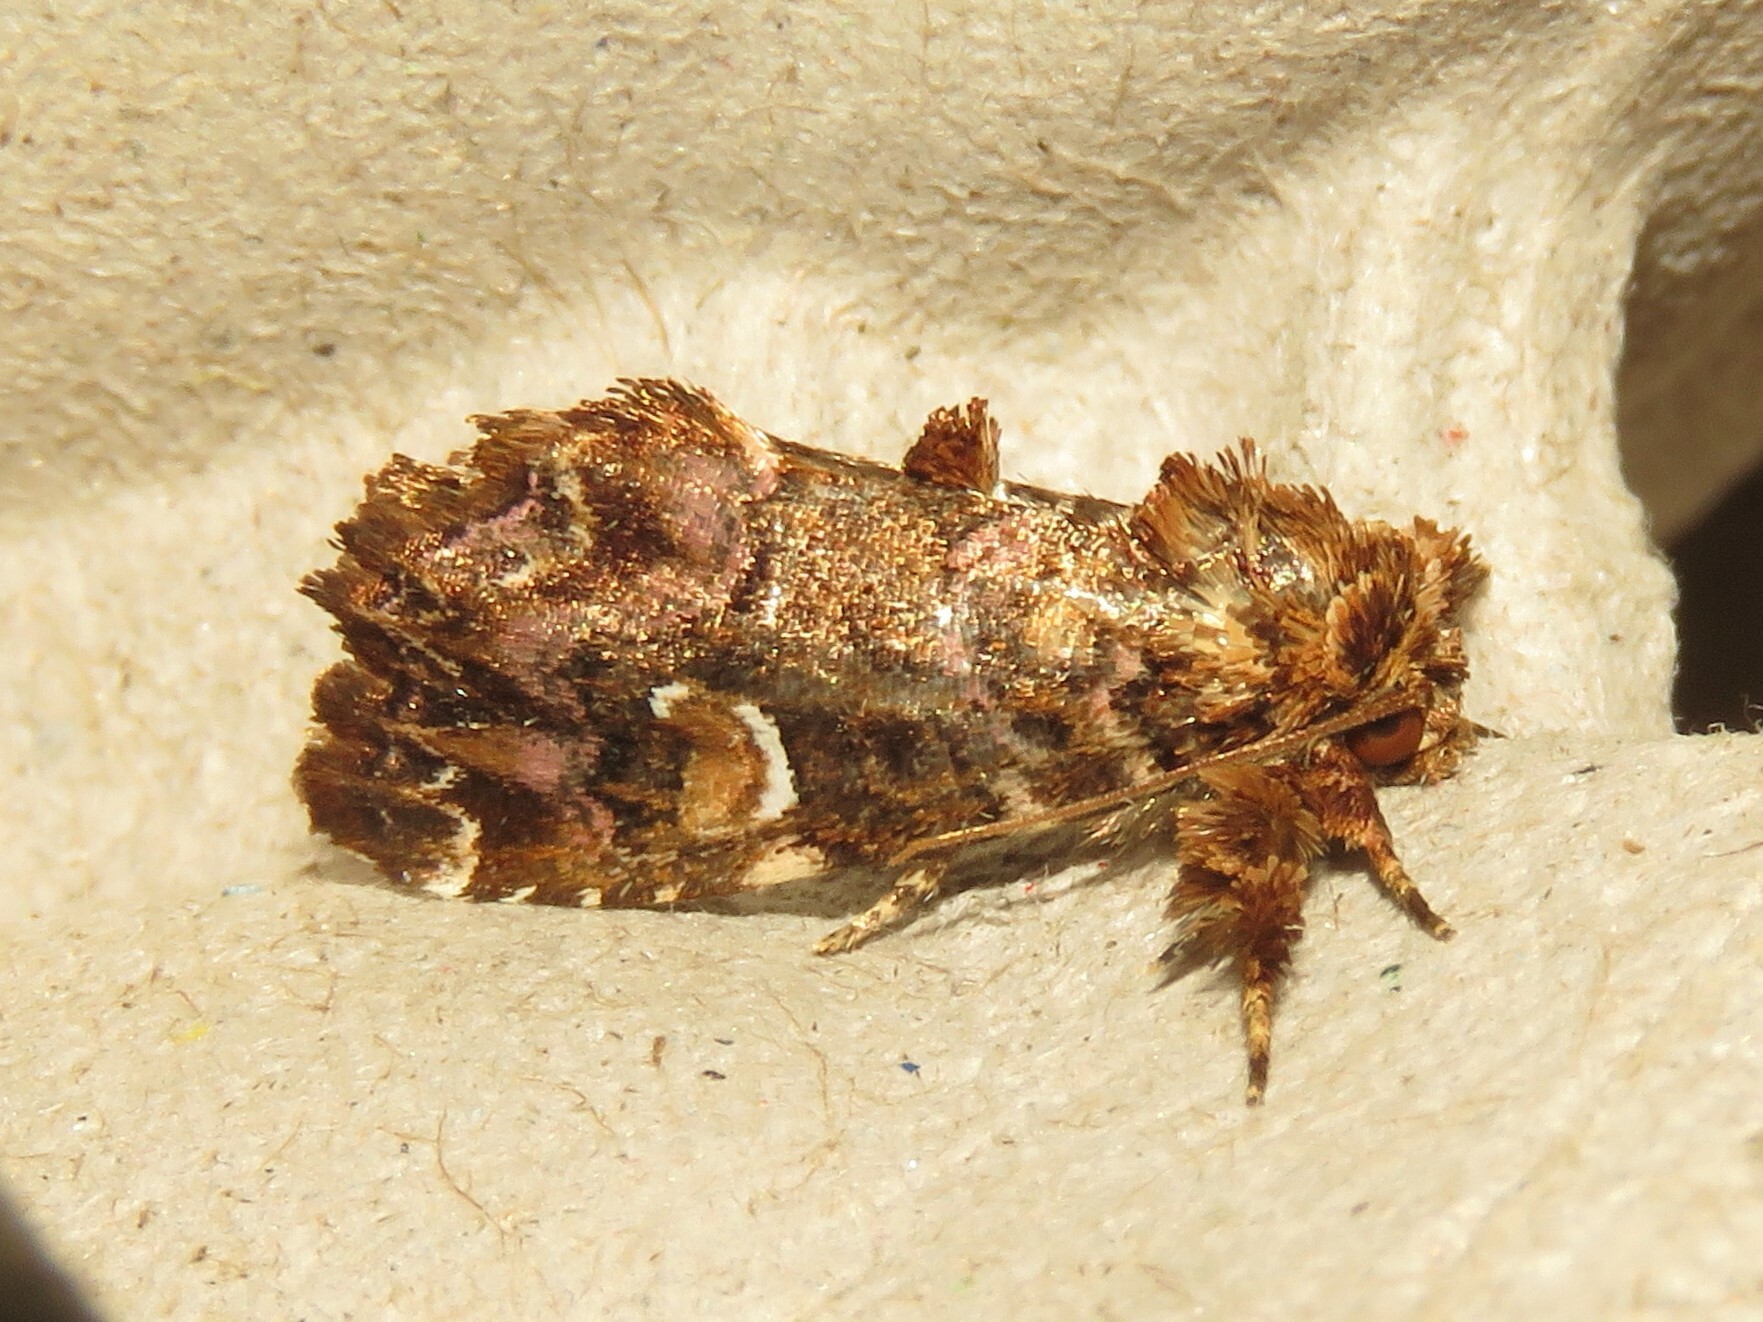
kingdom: Animalia
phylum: Arthropoda
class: Insecta
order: Lepidoptera
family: Noctuidae
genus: Callopistria
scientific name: Callopistria mollissima
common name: Pink-shaded fern moth
